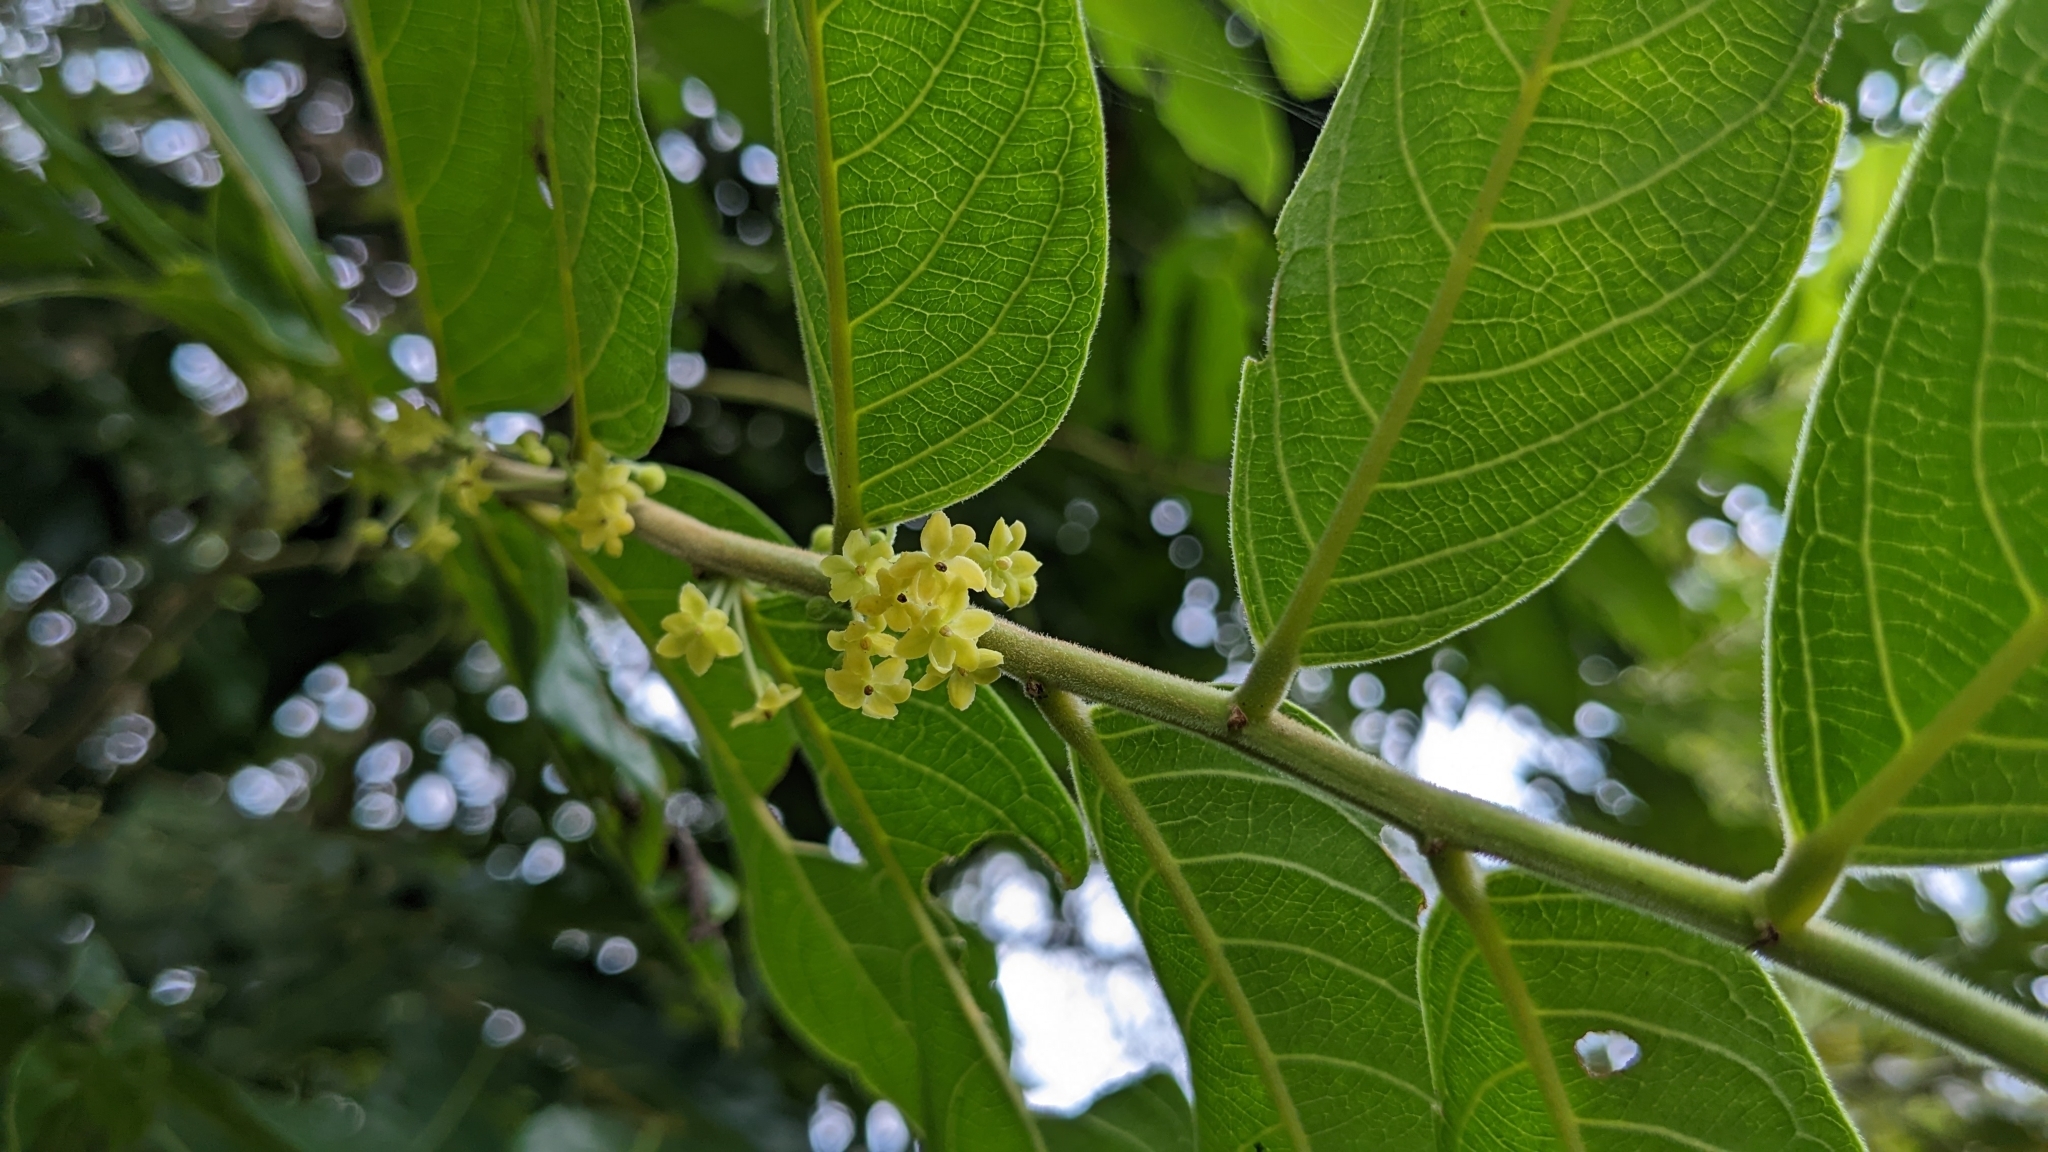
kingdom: Plantae
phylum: Tracheophyta
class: Magnoliopsida
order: Malpighiales
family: Phyllanthaceae
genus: Glochidion
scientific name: Glochidion philippicum
